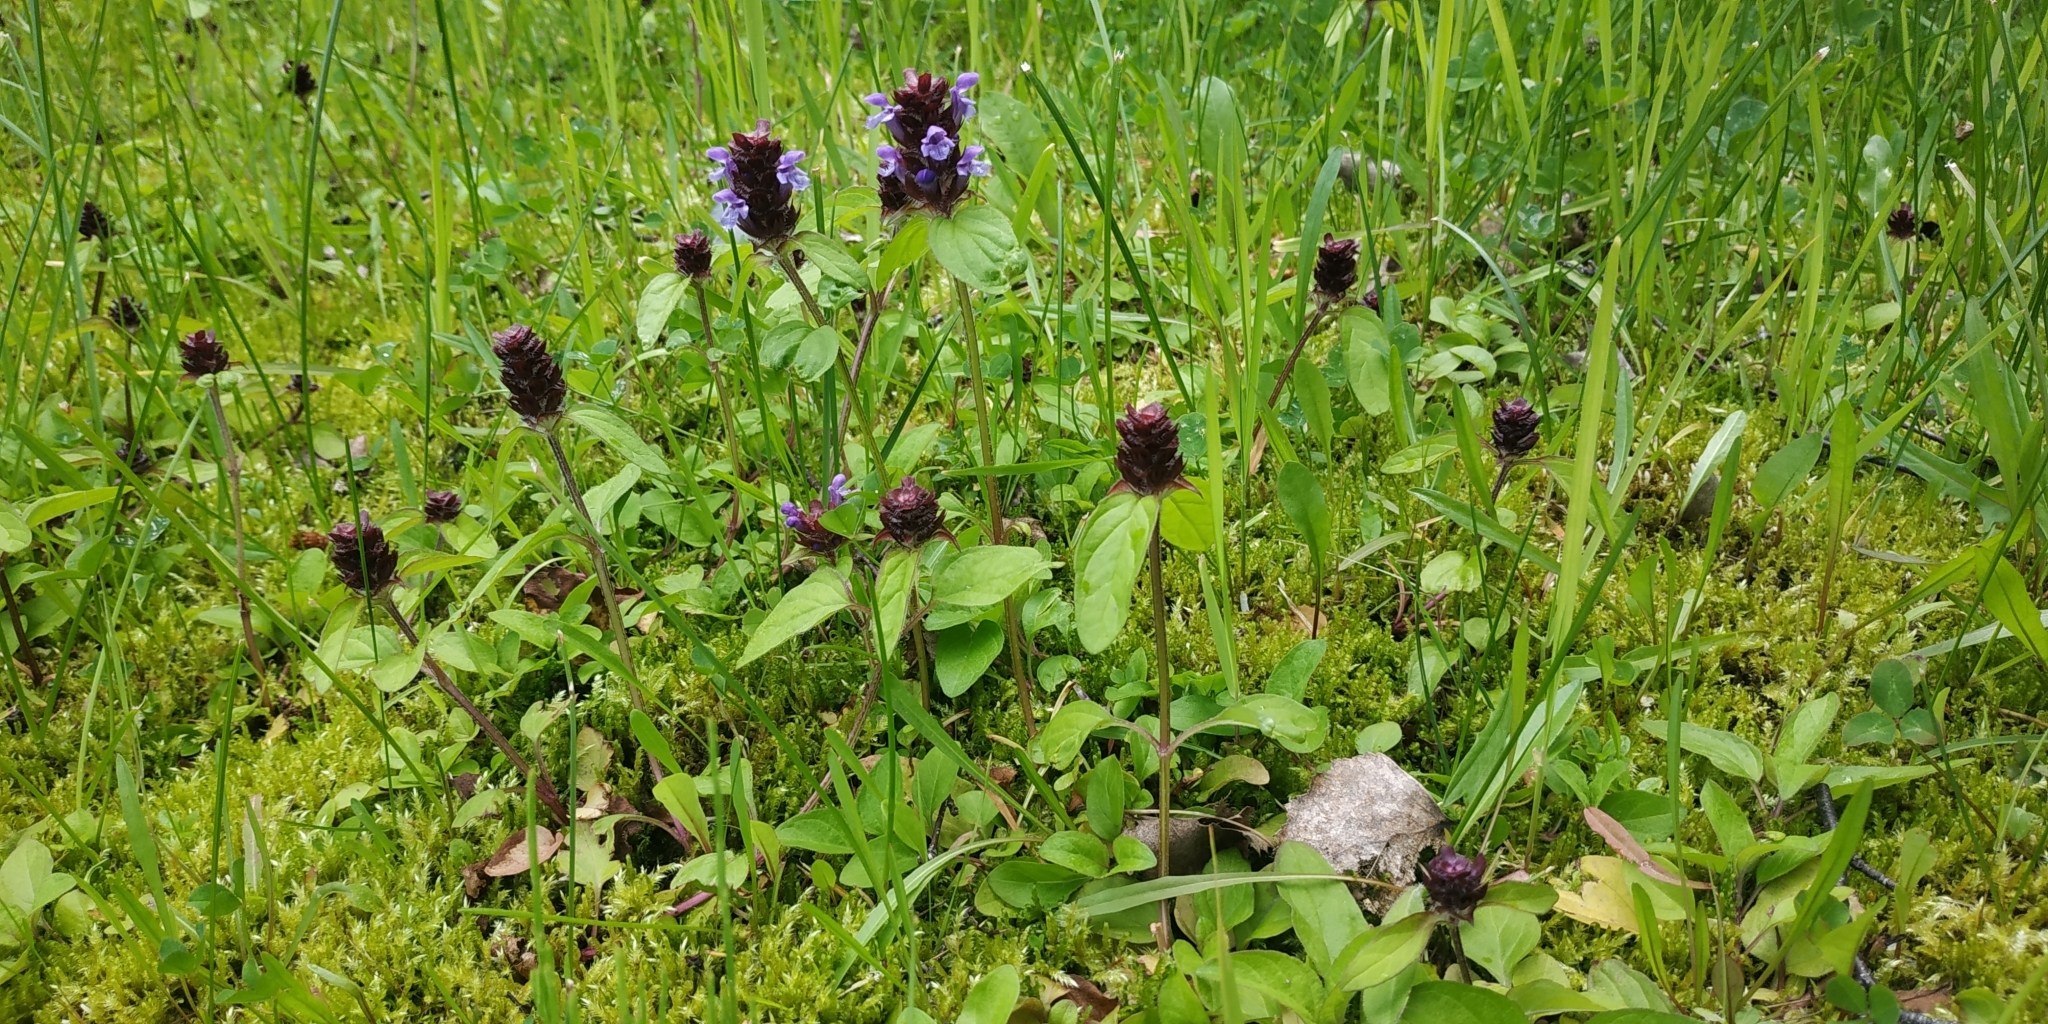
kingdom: Plantae
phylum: Tracheophyta
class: Magnoliopsida
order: Lamiales
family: Lamiaceae
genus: Prunella
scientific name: Prunella vulgaris
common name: Heal-all
